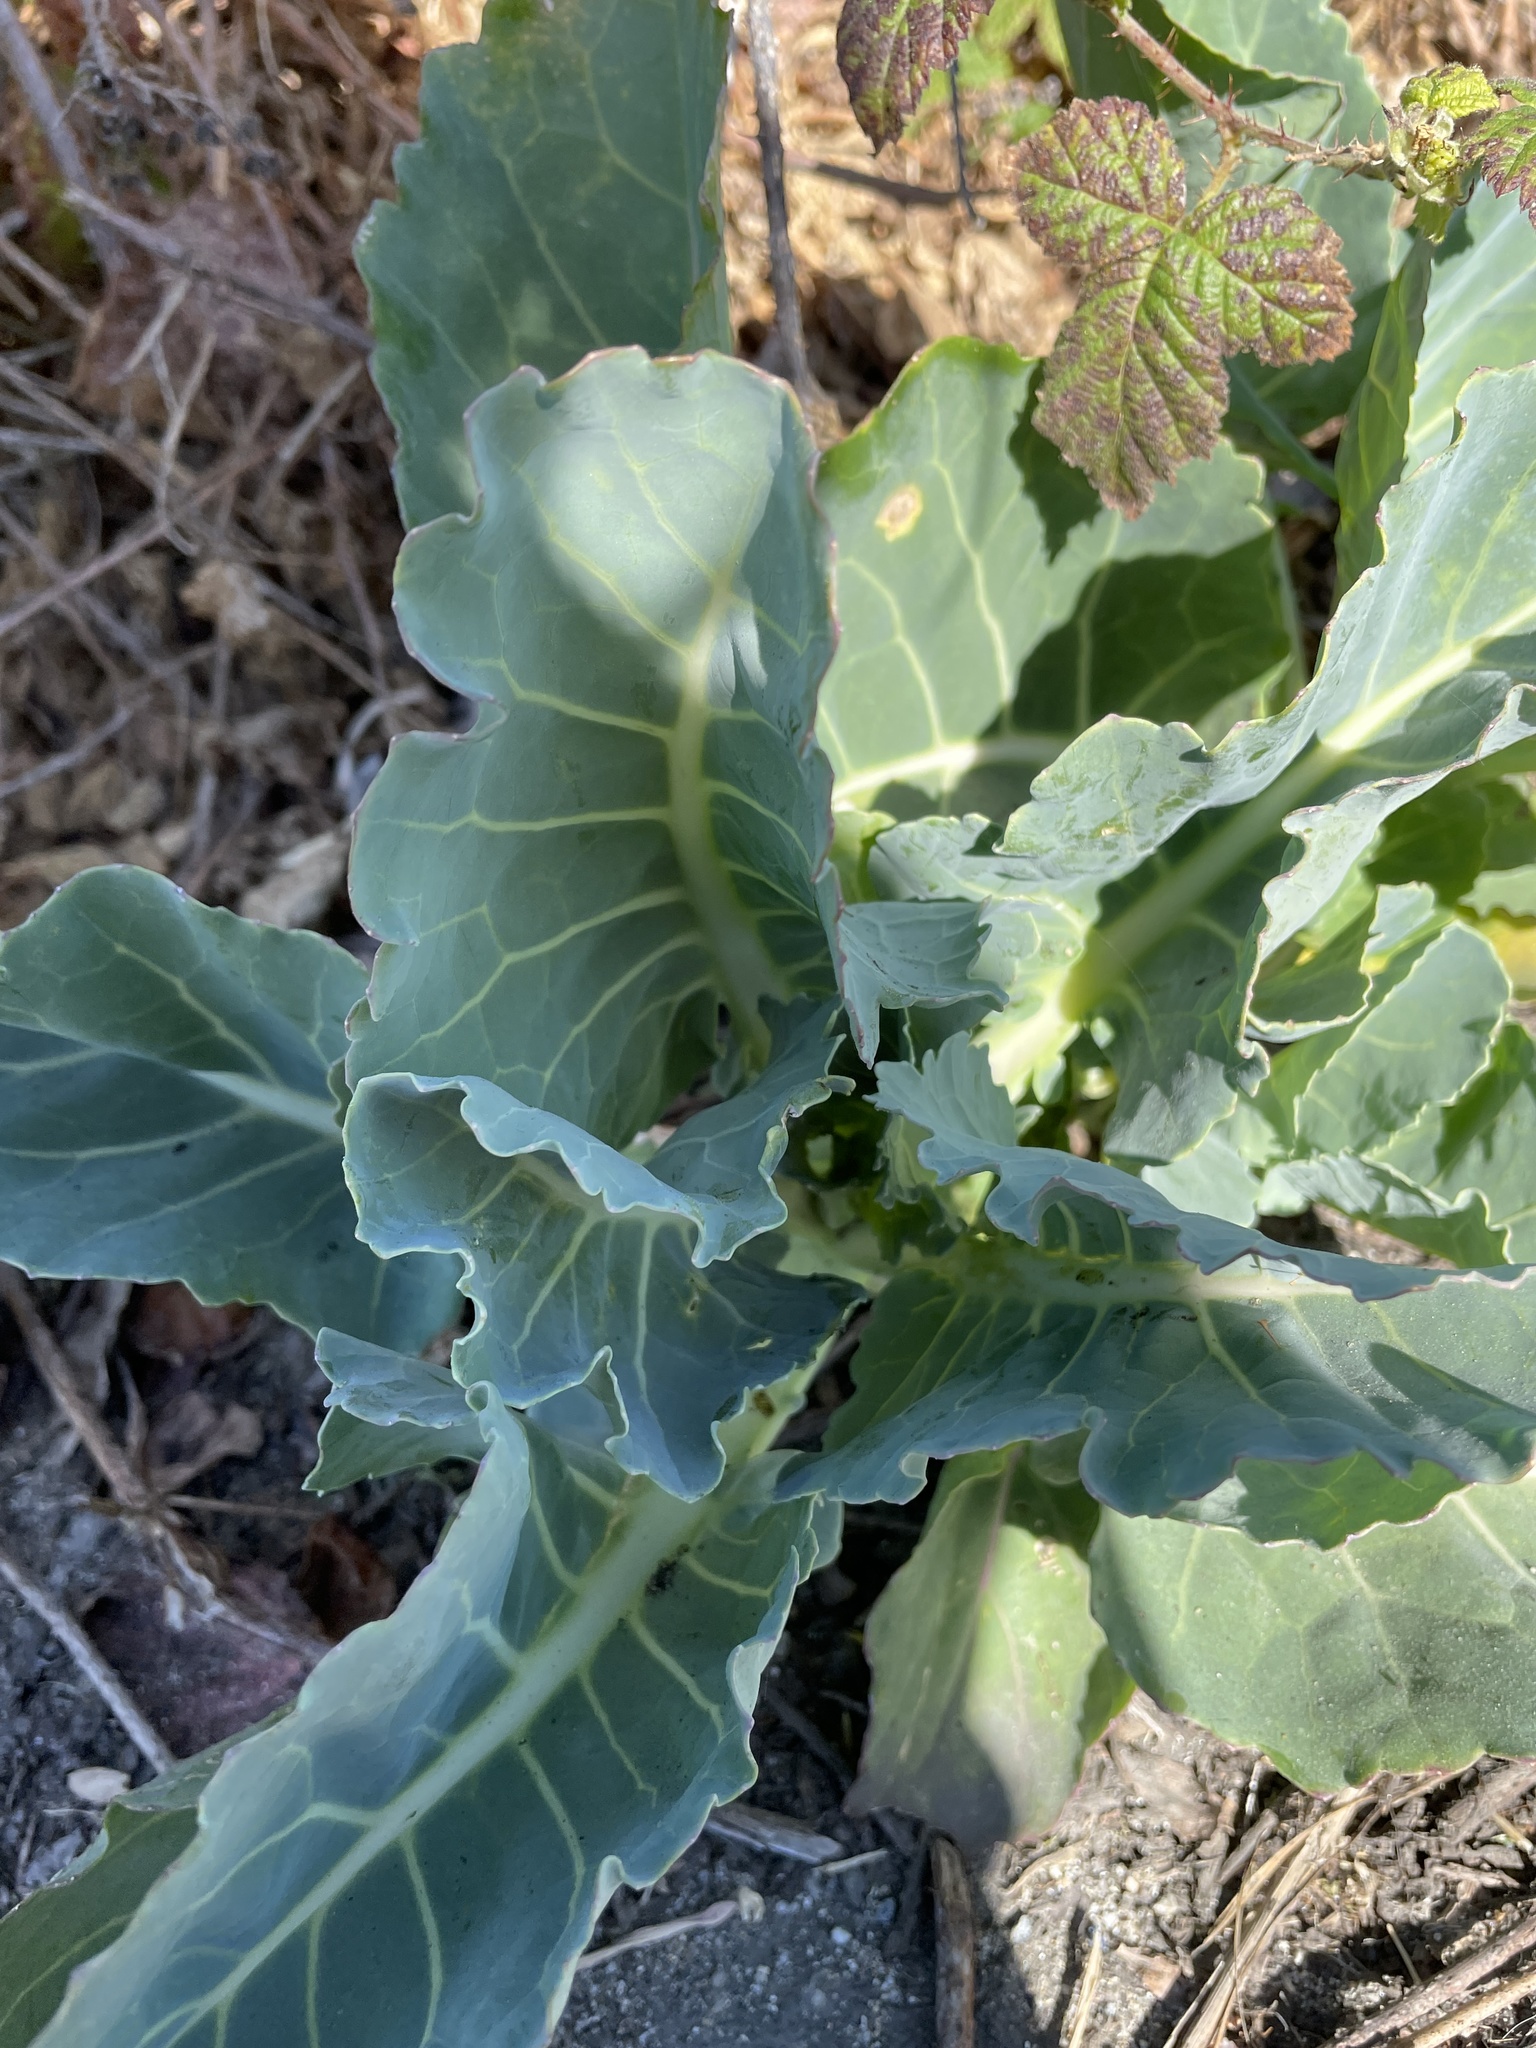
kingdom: Plantae
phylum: Tracheophyta
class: Magnoliopsida
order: Brassicales
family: Brassicaceae
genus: Brassica
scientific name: Brassica oleracea
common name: Cabbage
